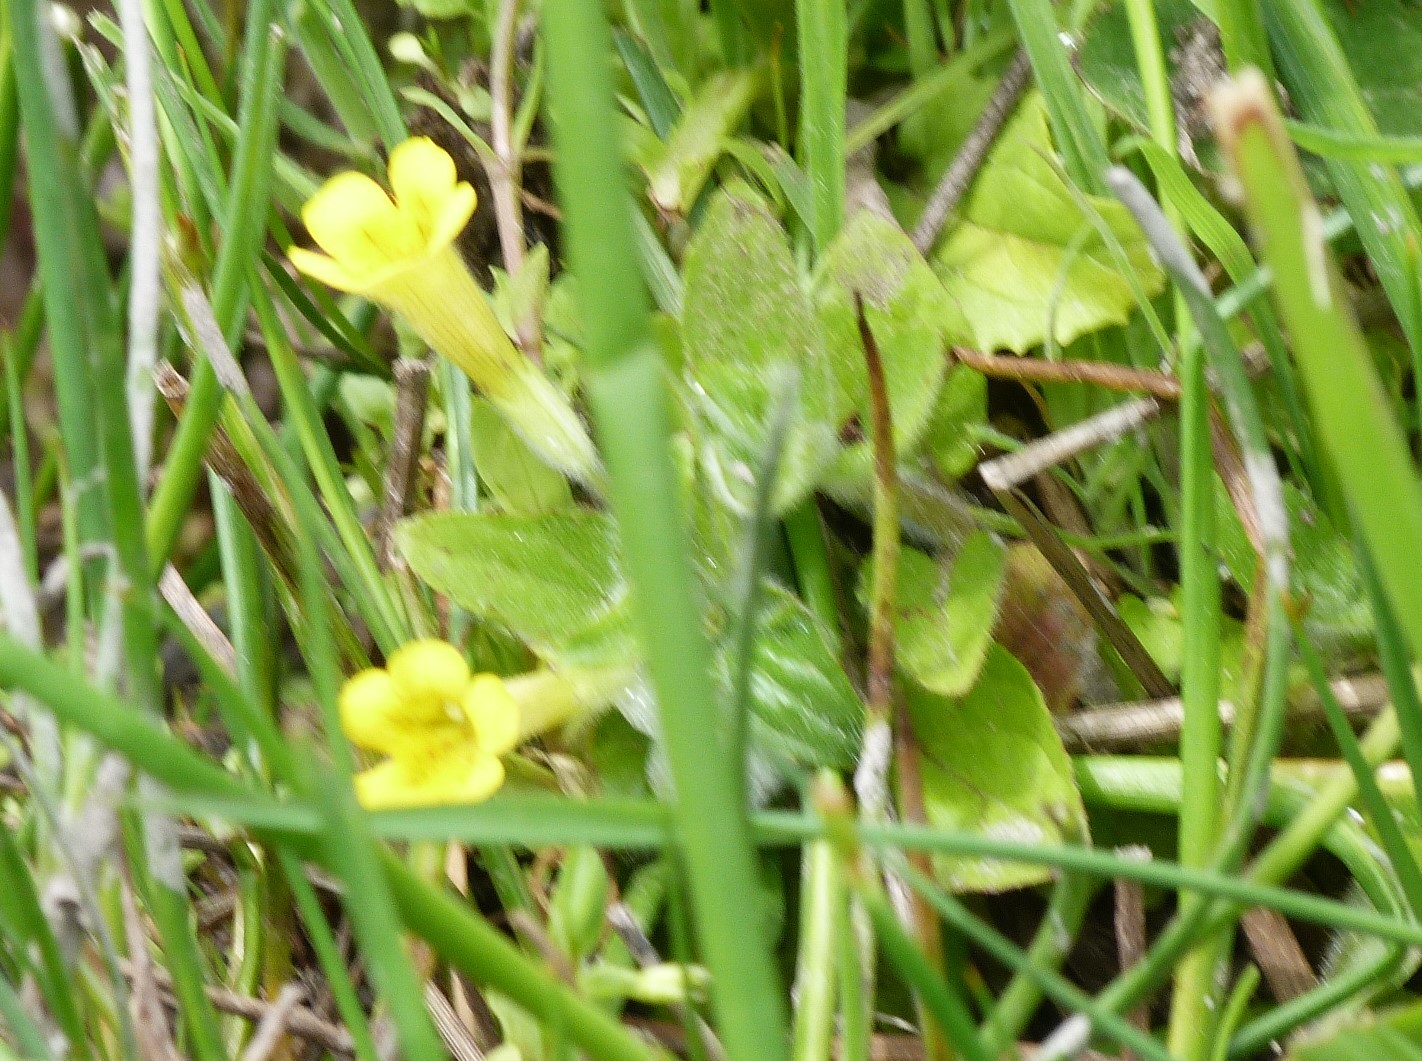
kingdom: Plantae
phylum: Tracheophyta
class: Magnoliopsida
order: Lamiales
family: Phrymaceae
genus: Erythranthe
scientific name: Erythranthe moschata
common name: Muskflower
